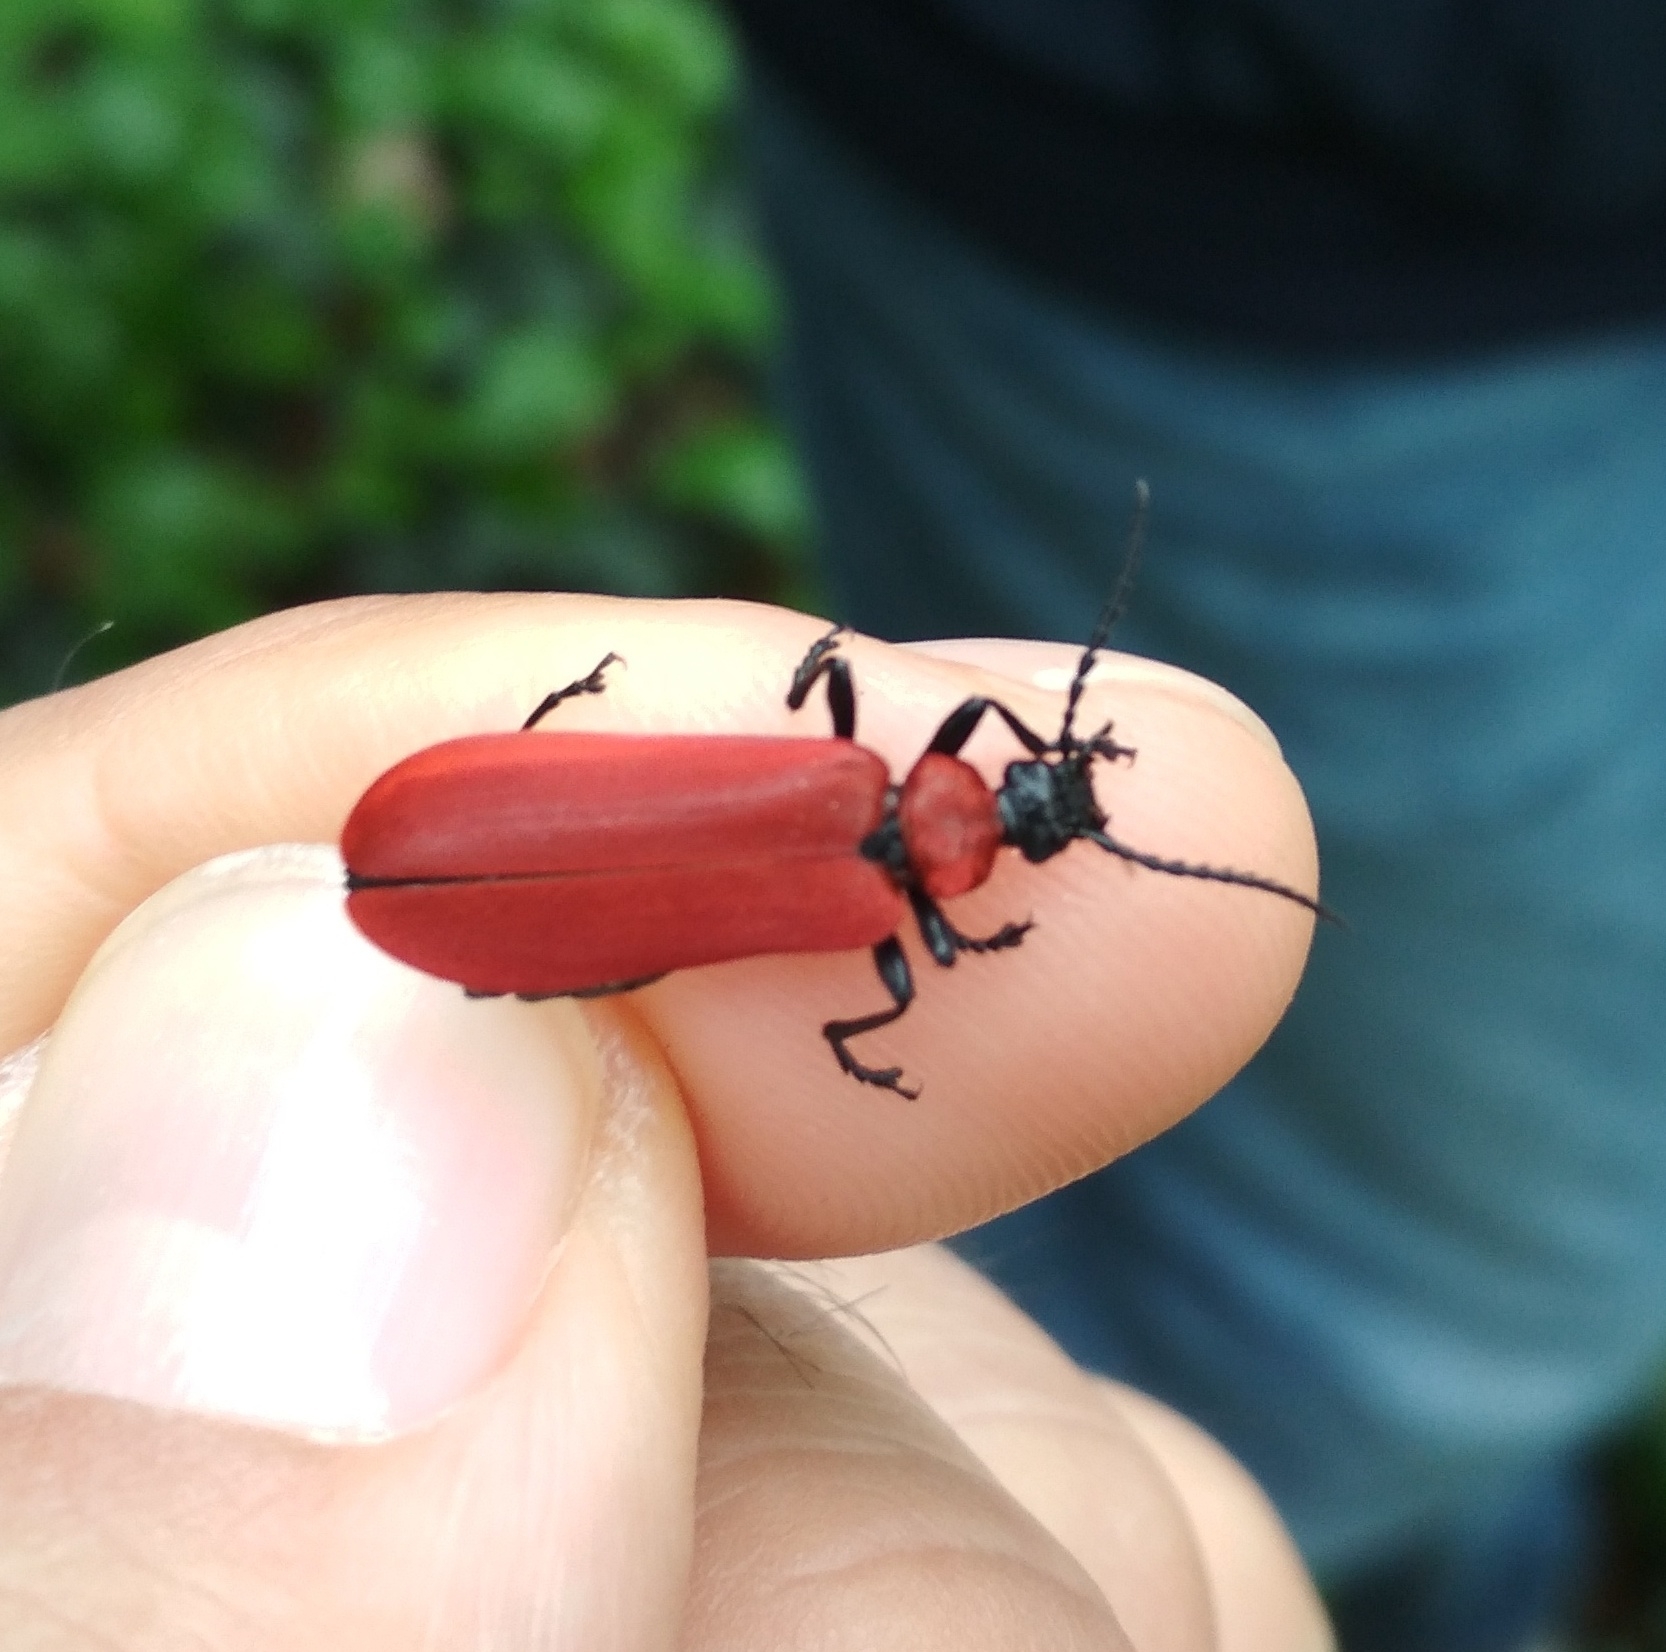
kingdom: Animalia
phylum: Arthropoda
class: Insecta
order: Coleoptera
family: Pyrochroidae
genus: Pyrochroa
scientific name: Pyrochroa coccinea
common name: Black-headed cardinal beetle
